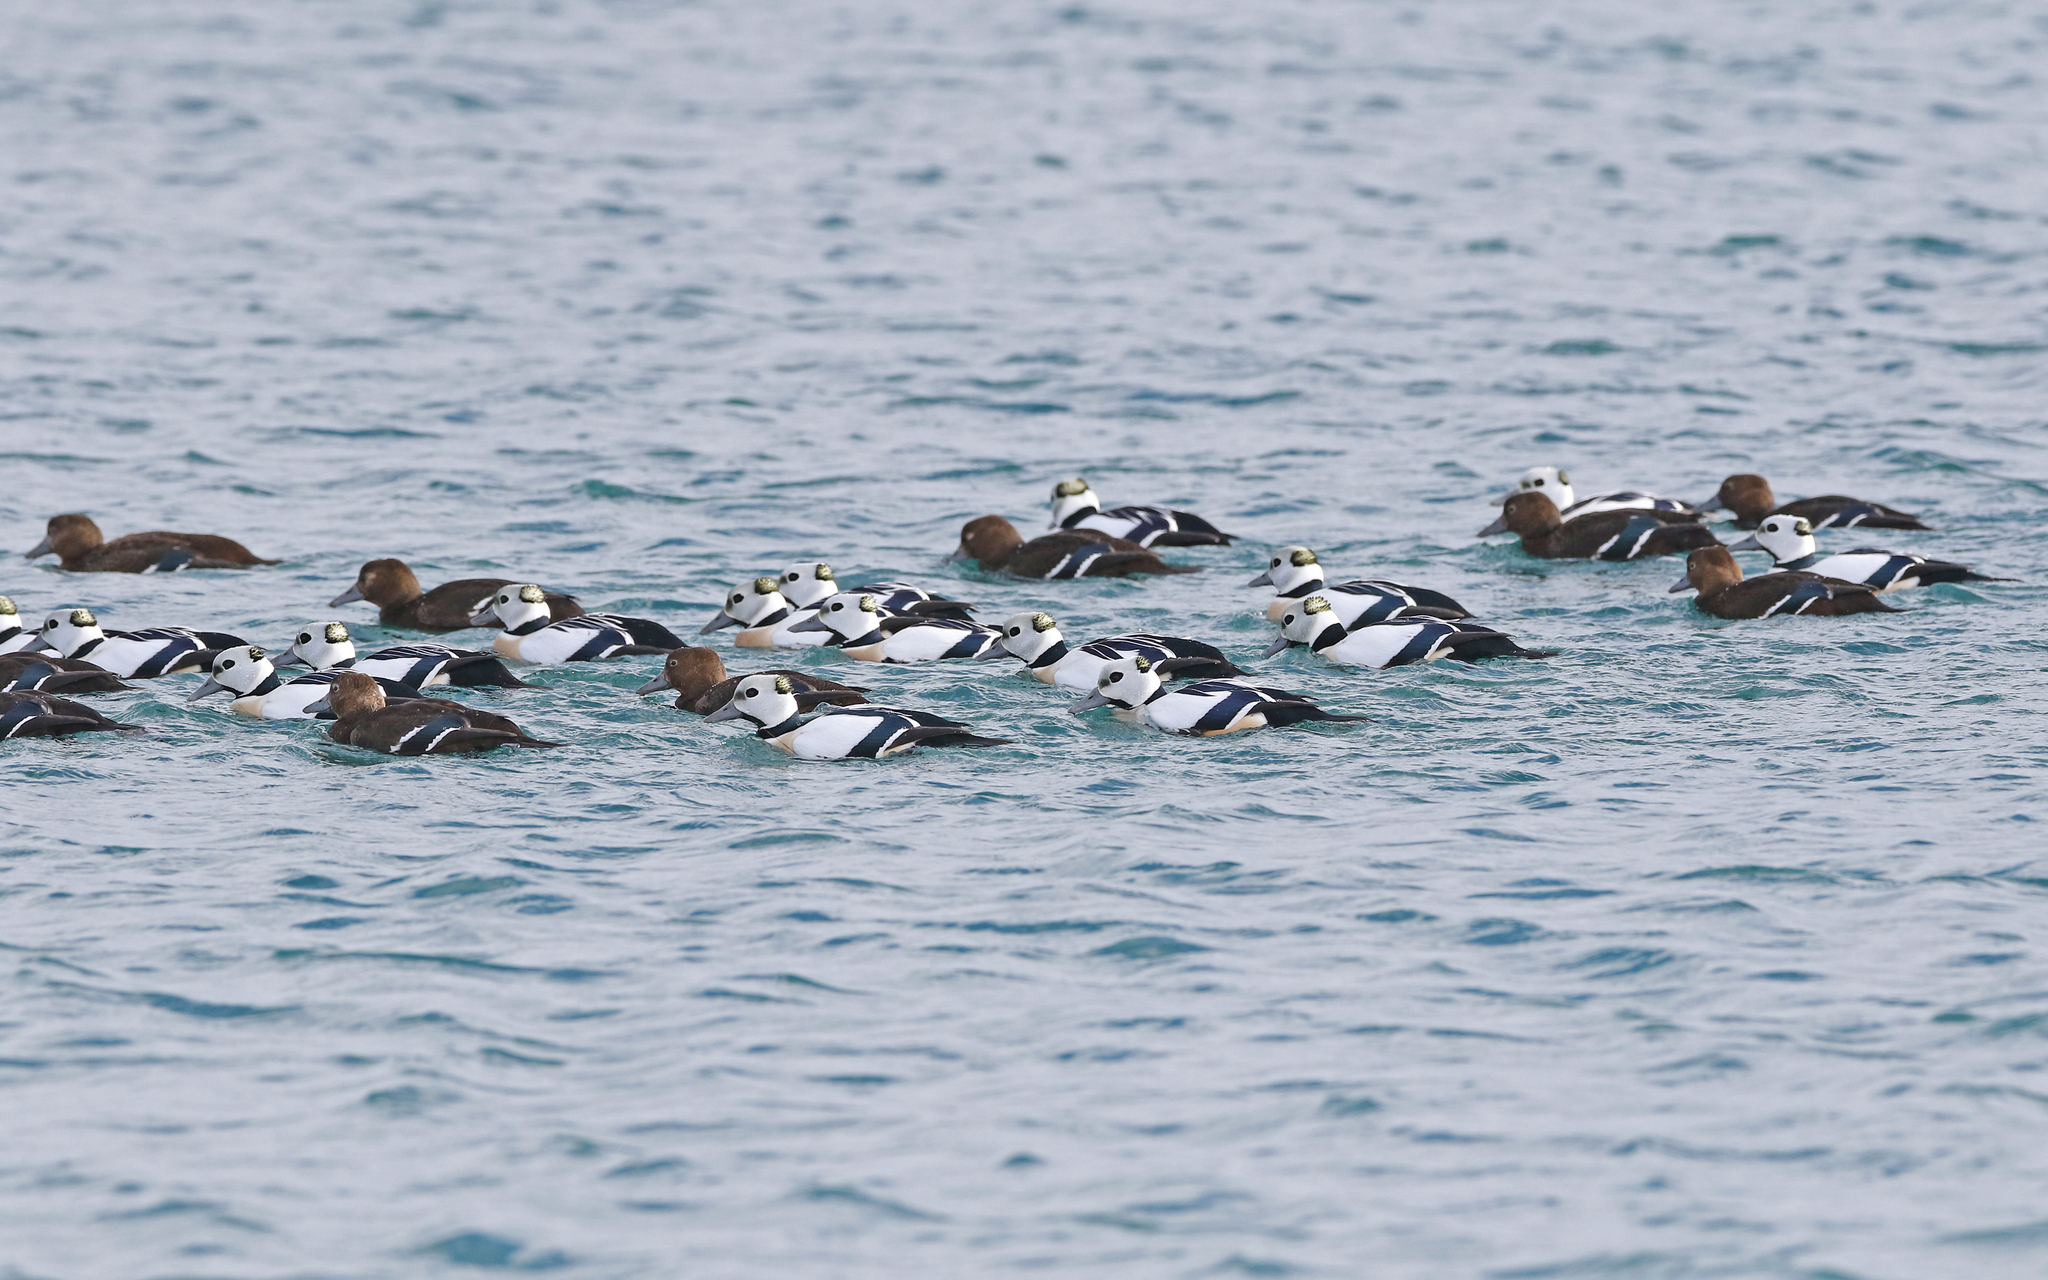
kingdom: Animalia
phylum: Chordata
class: Aves
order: Anseriformes
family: Anatidae
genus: Polysticta
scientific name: Polysticta stelleri
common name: Steller's eider
